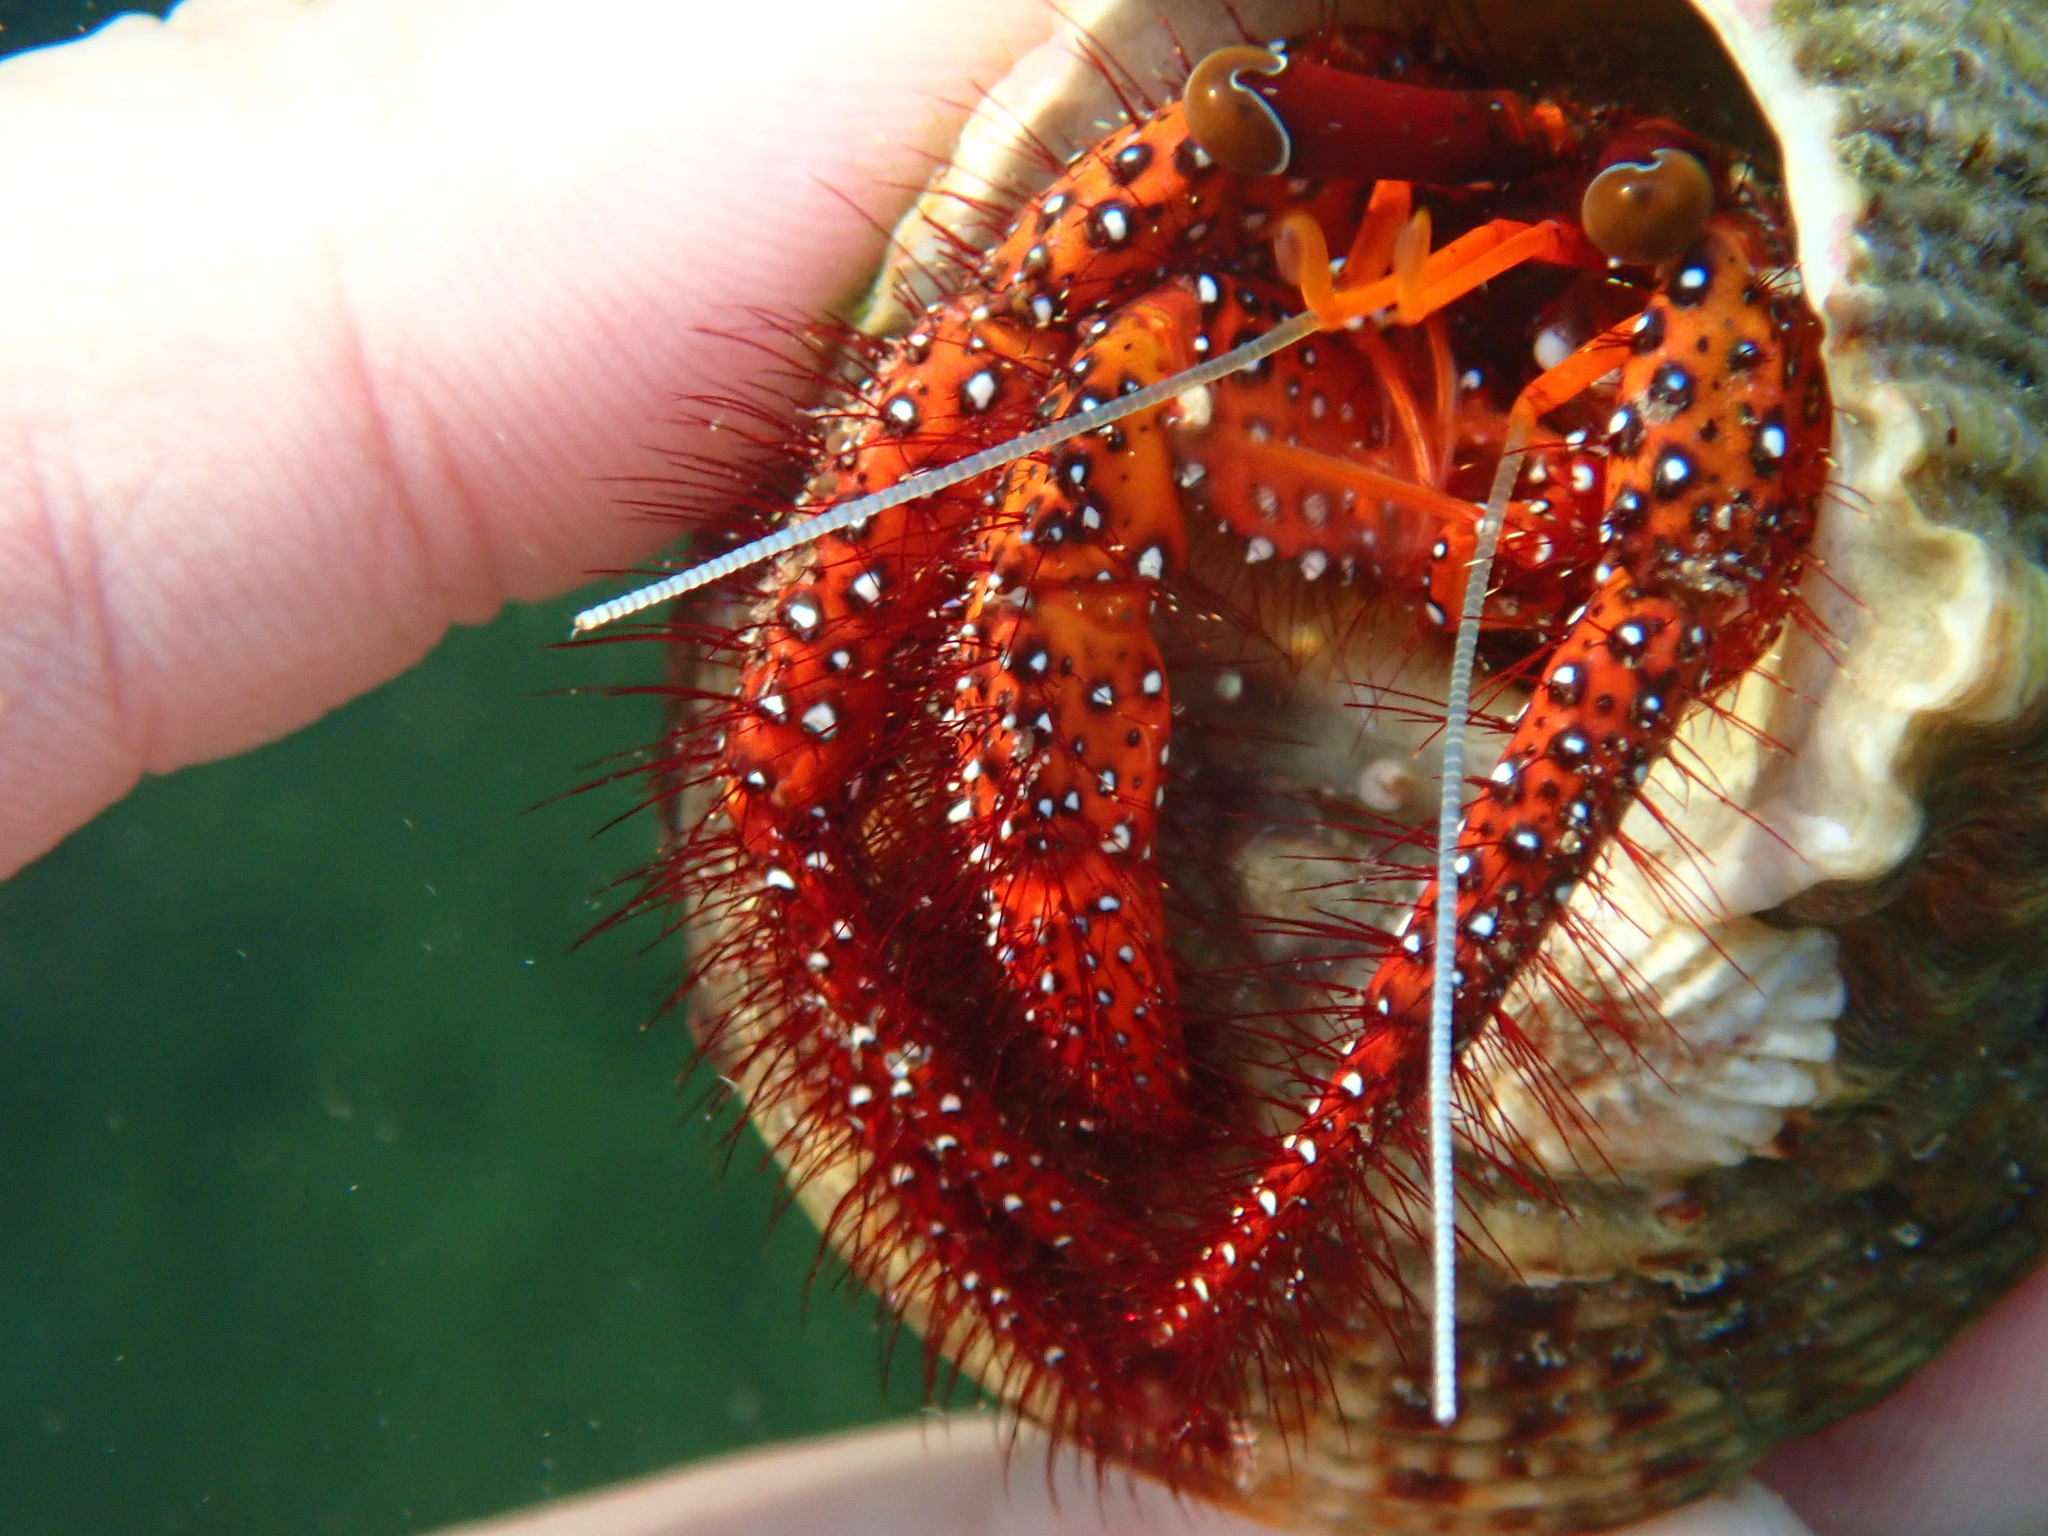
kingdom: Animalia
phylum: Arthropoda
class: Malacostraca
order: Decapoda
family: Diogenidae
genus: Dardanus
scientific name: Dardanus megistos
